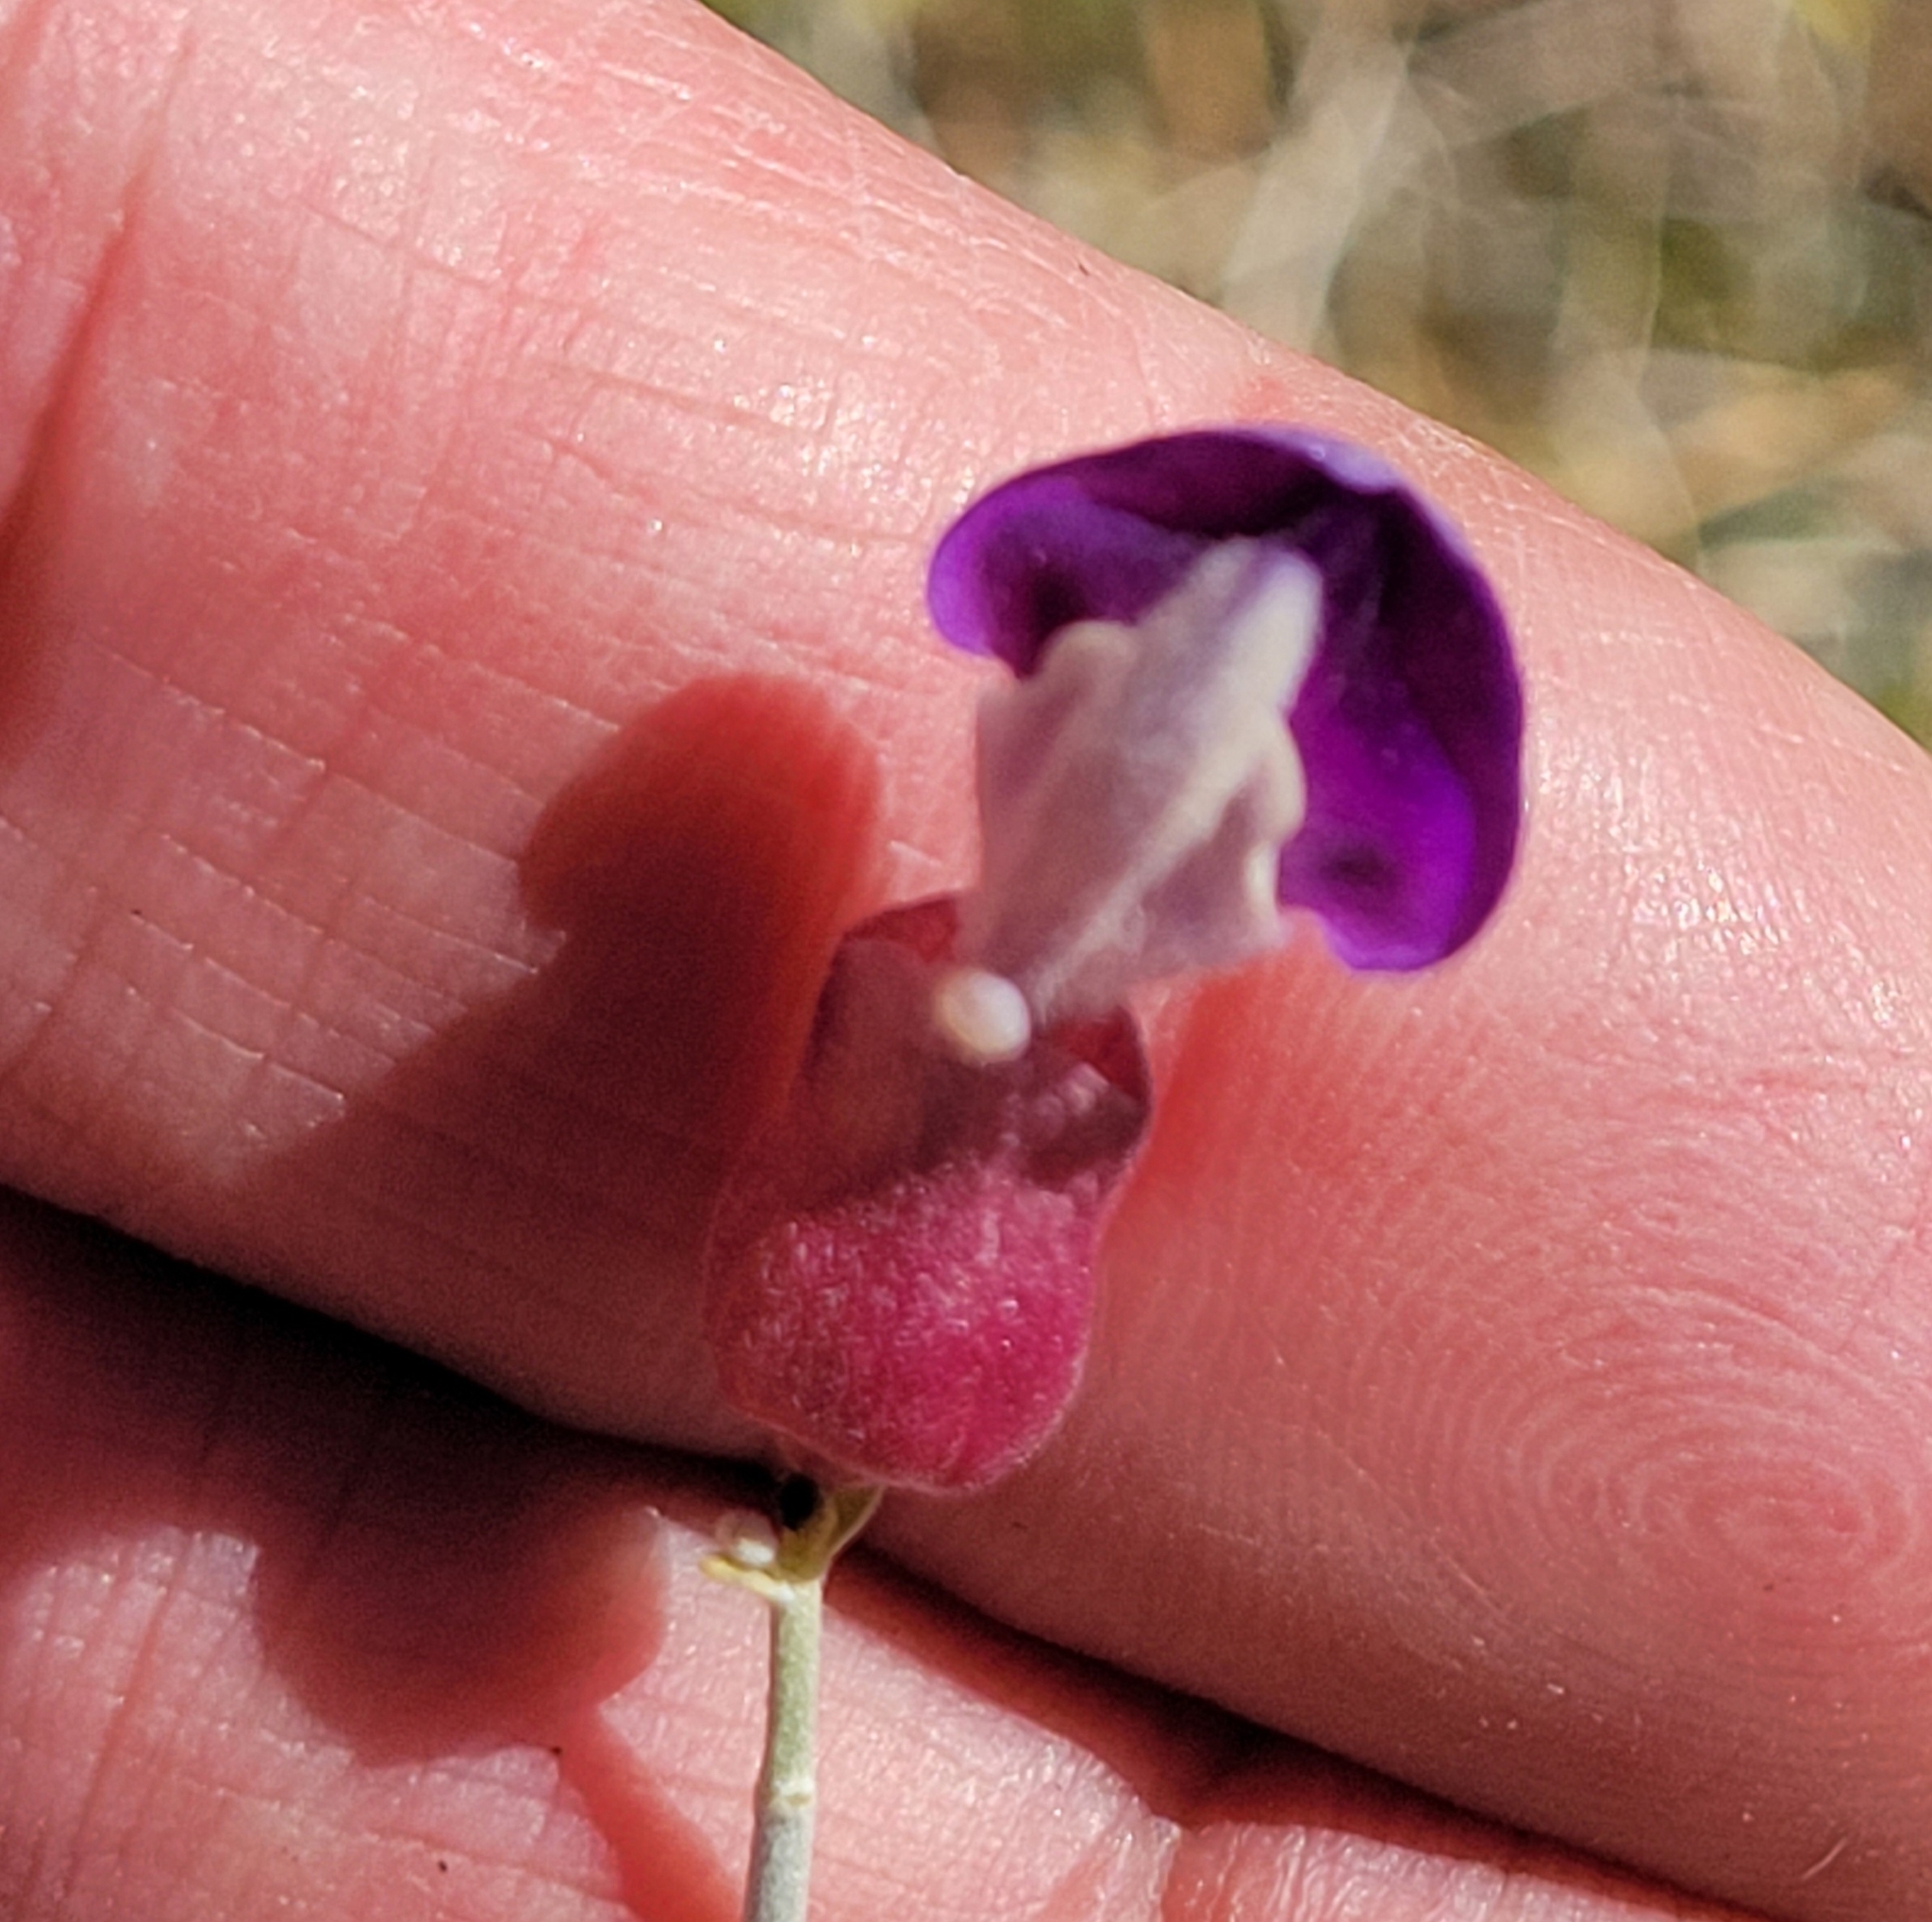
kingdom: Plantae
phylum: Tracheophyta
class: Magnoliopsida
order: Lamiales
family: Lamiaceae
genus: Scutellaria
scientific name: Scutellaria mexicana
